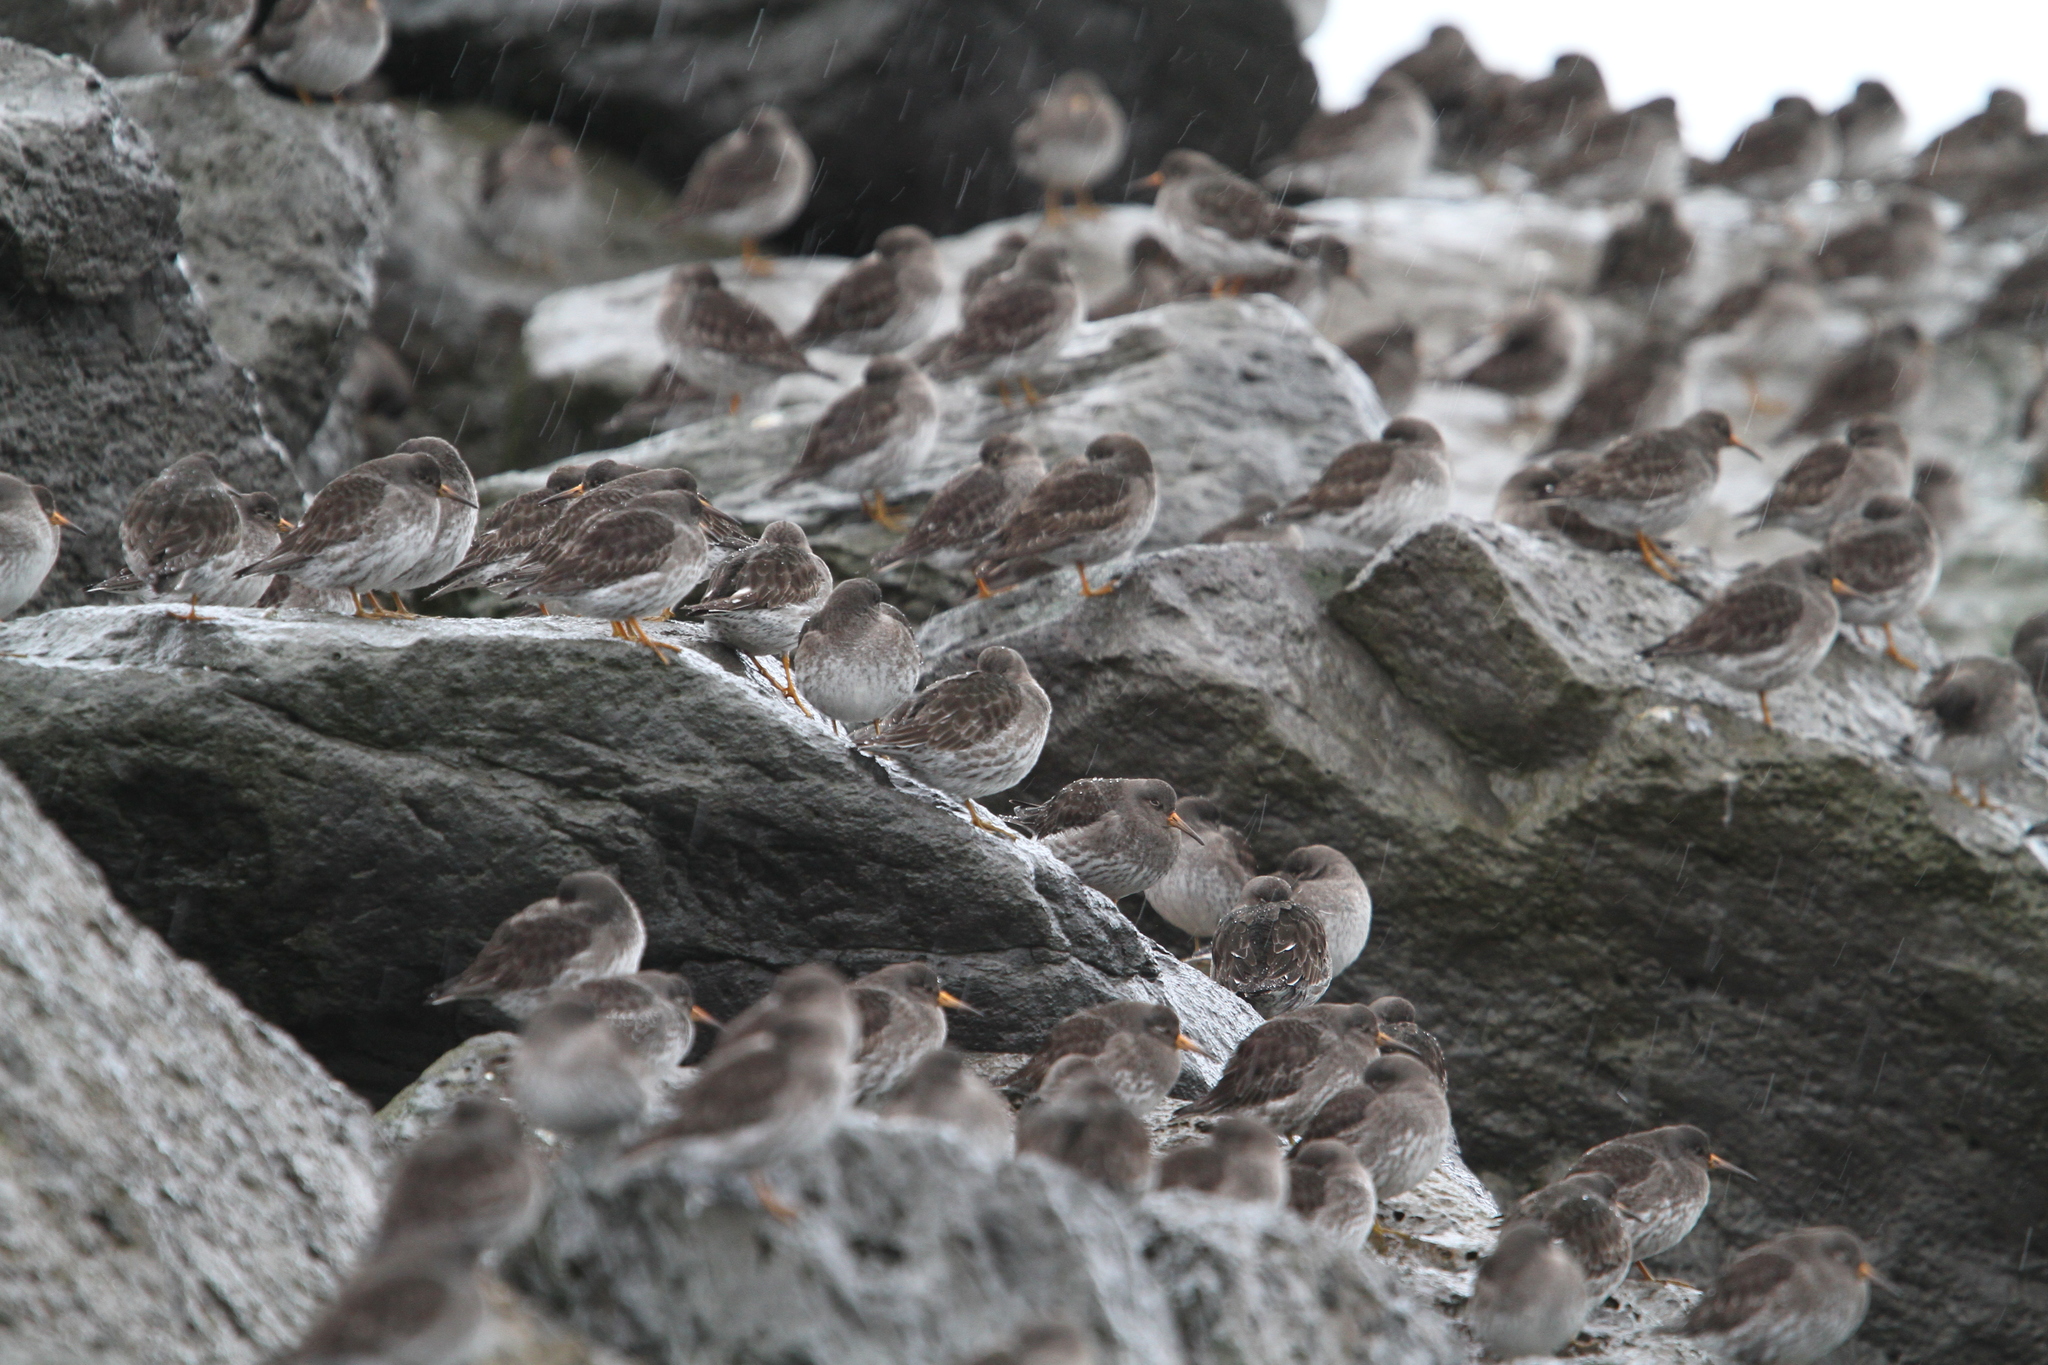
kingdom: Animalia
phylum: Chordata
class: Aves
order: Charadriiformes
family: Scolopacidae
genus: Calidris
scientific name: Calidris maritima
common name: Purple sandpiper
